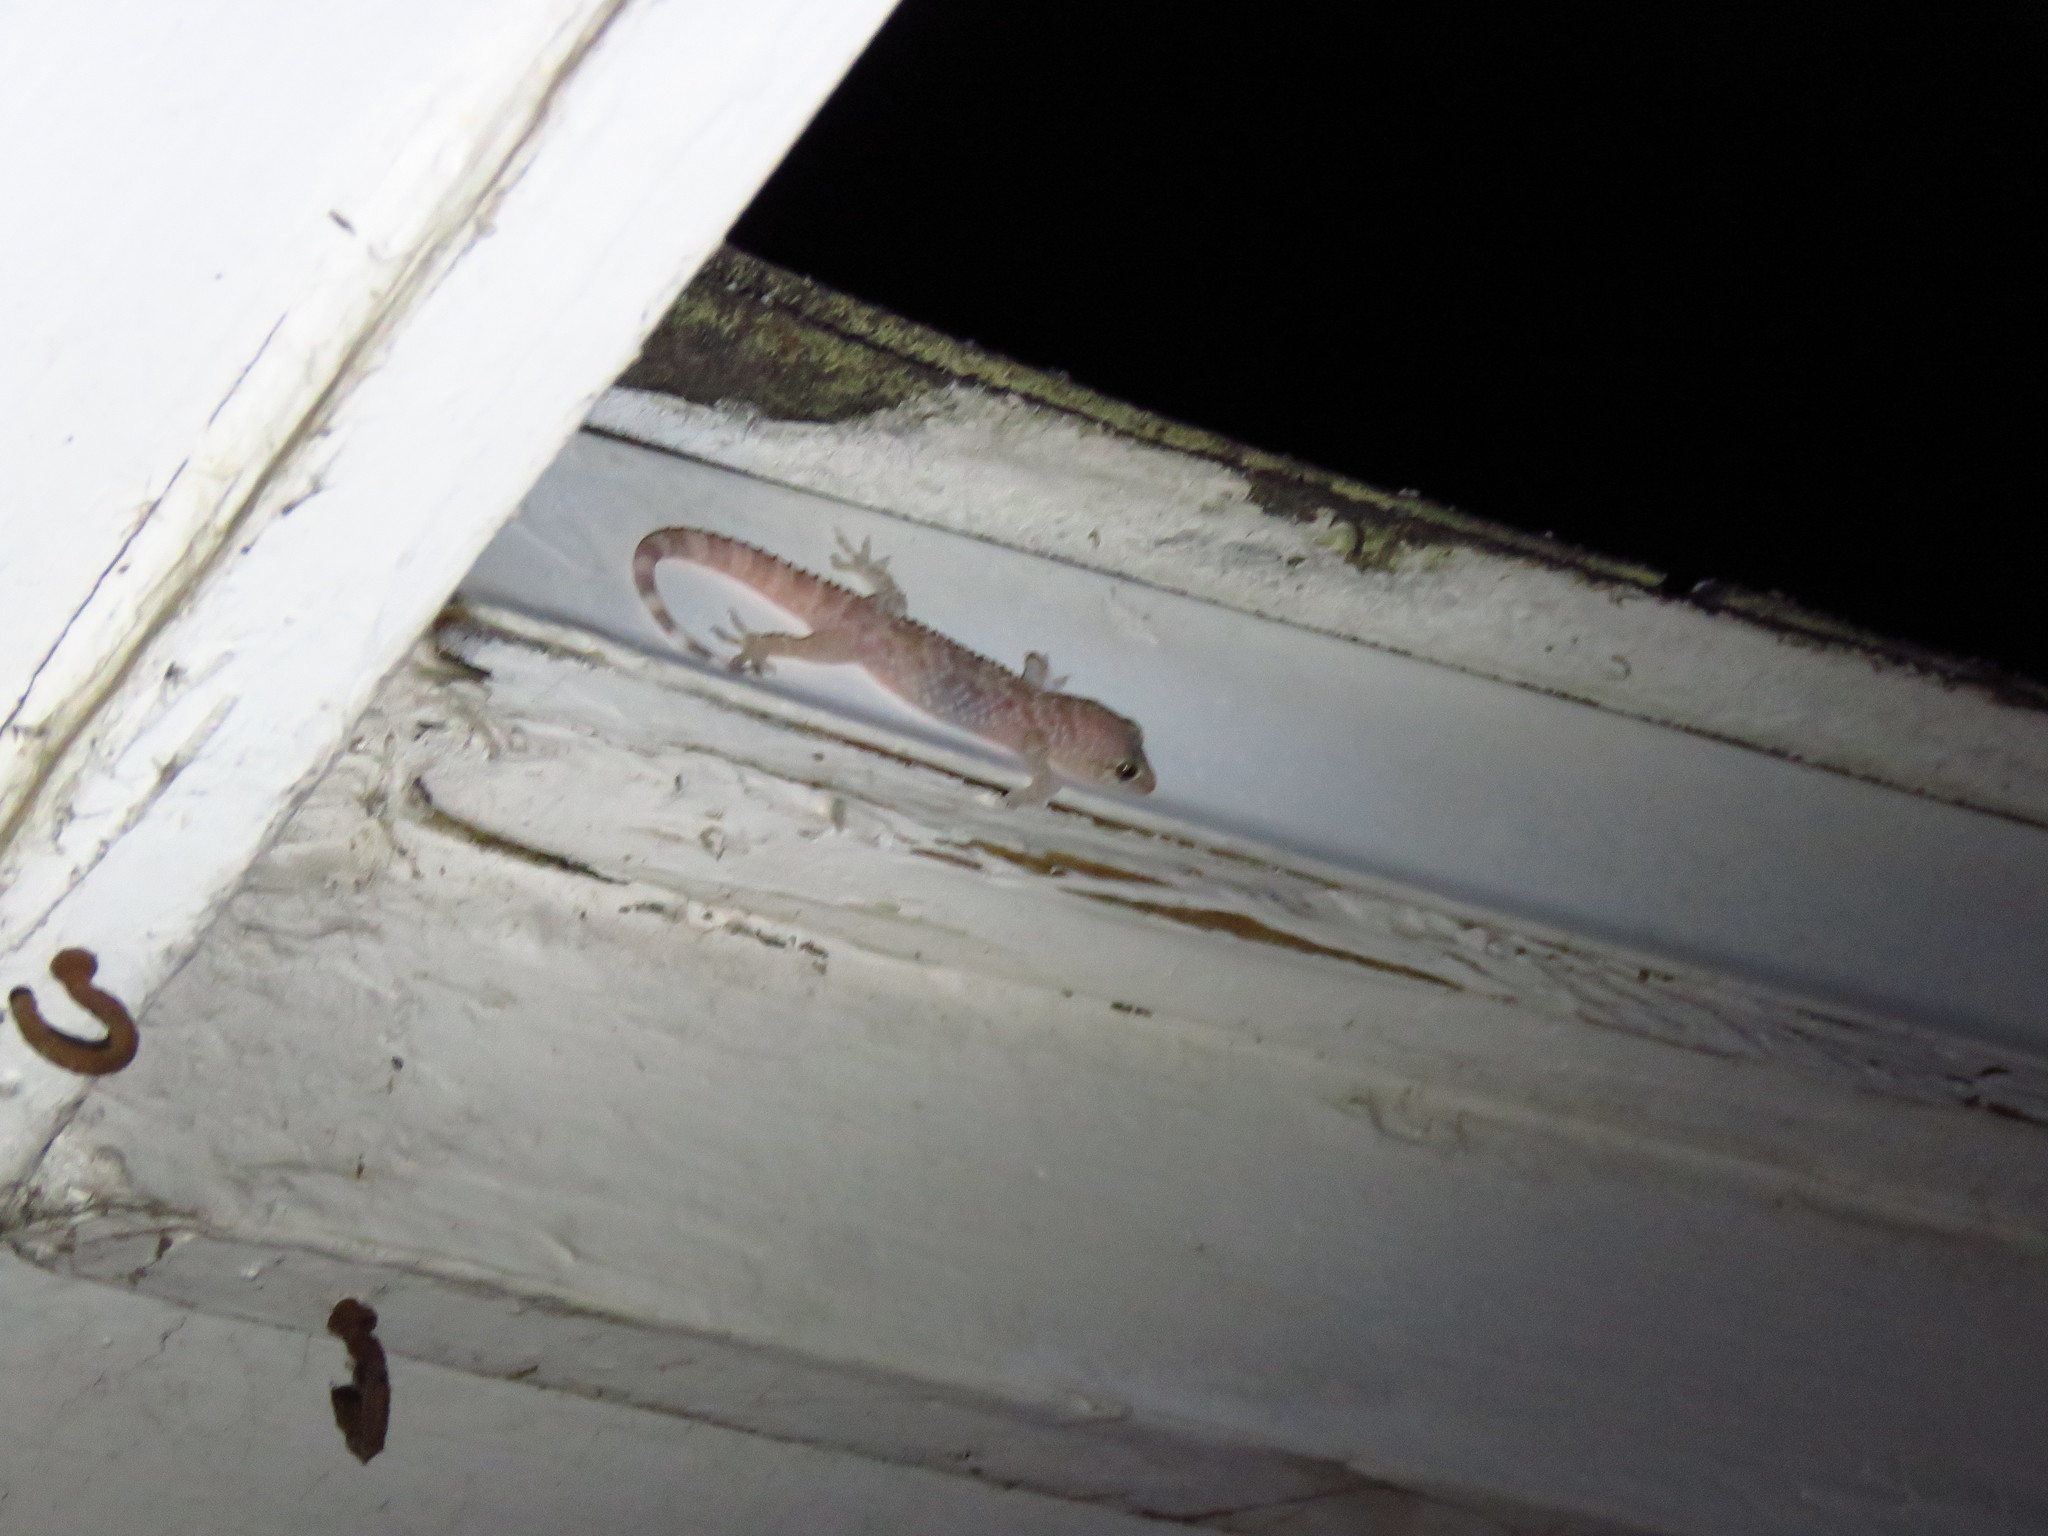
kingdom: Animalia
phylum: Chordata
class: Squamata
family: Gekkonidae
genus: Hemidactylus
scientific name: Hemidactylus turcicus
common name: Turkish gecko
